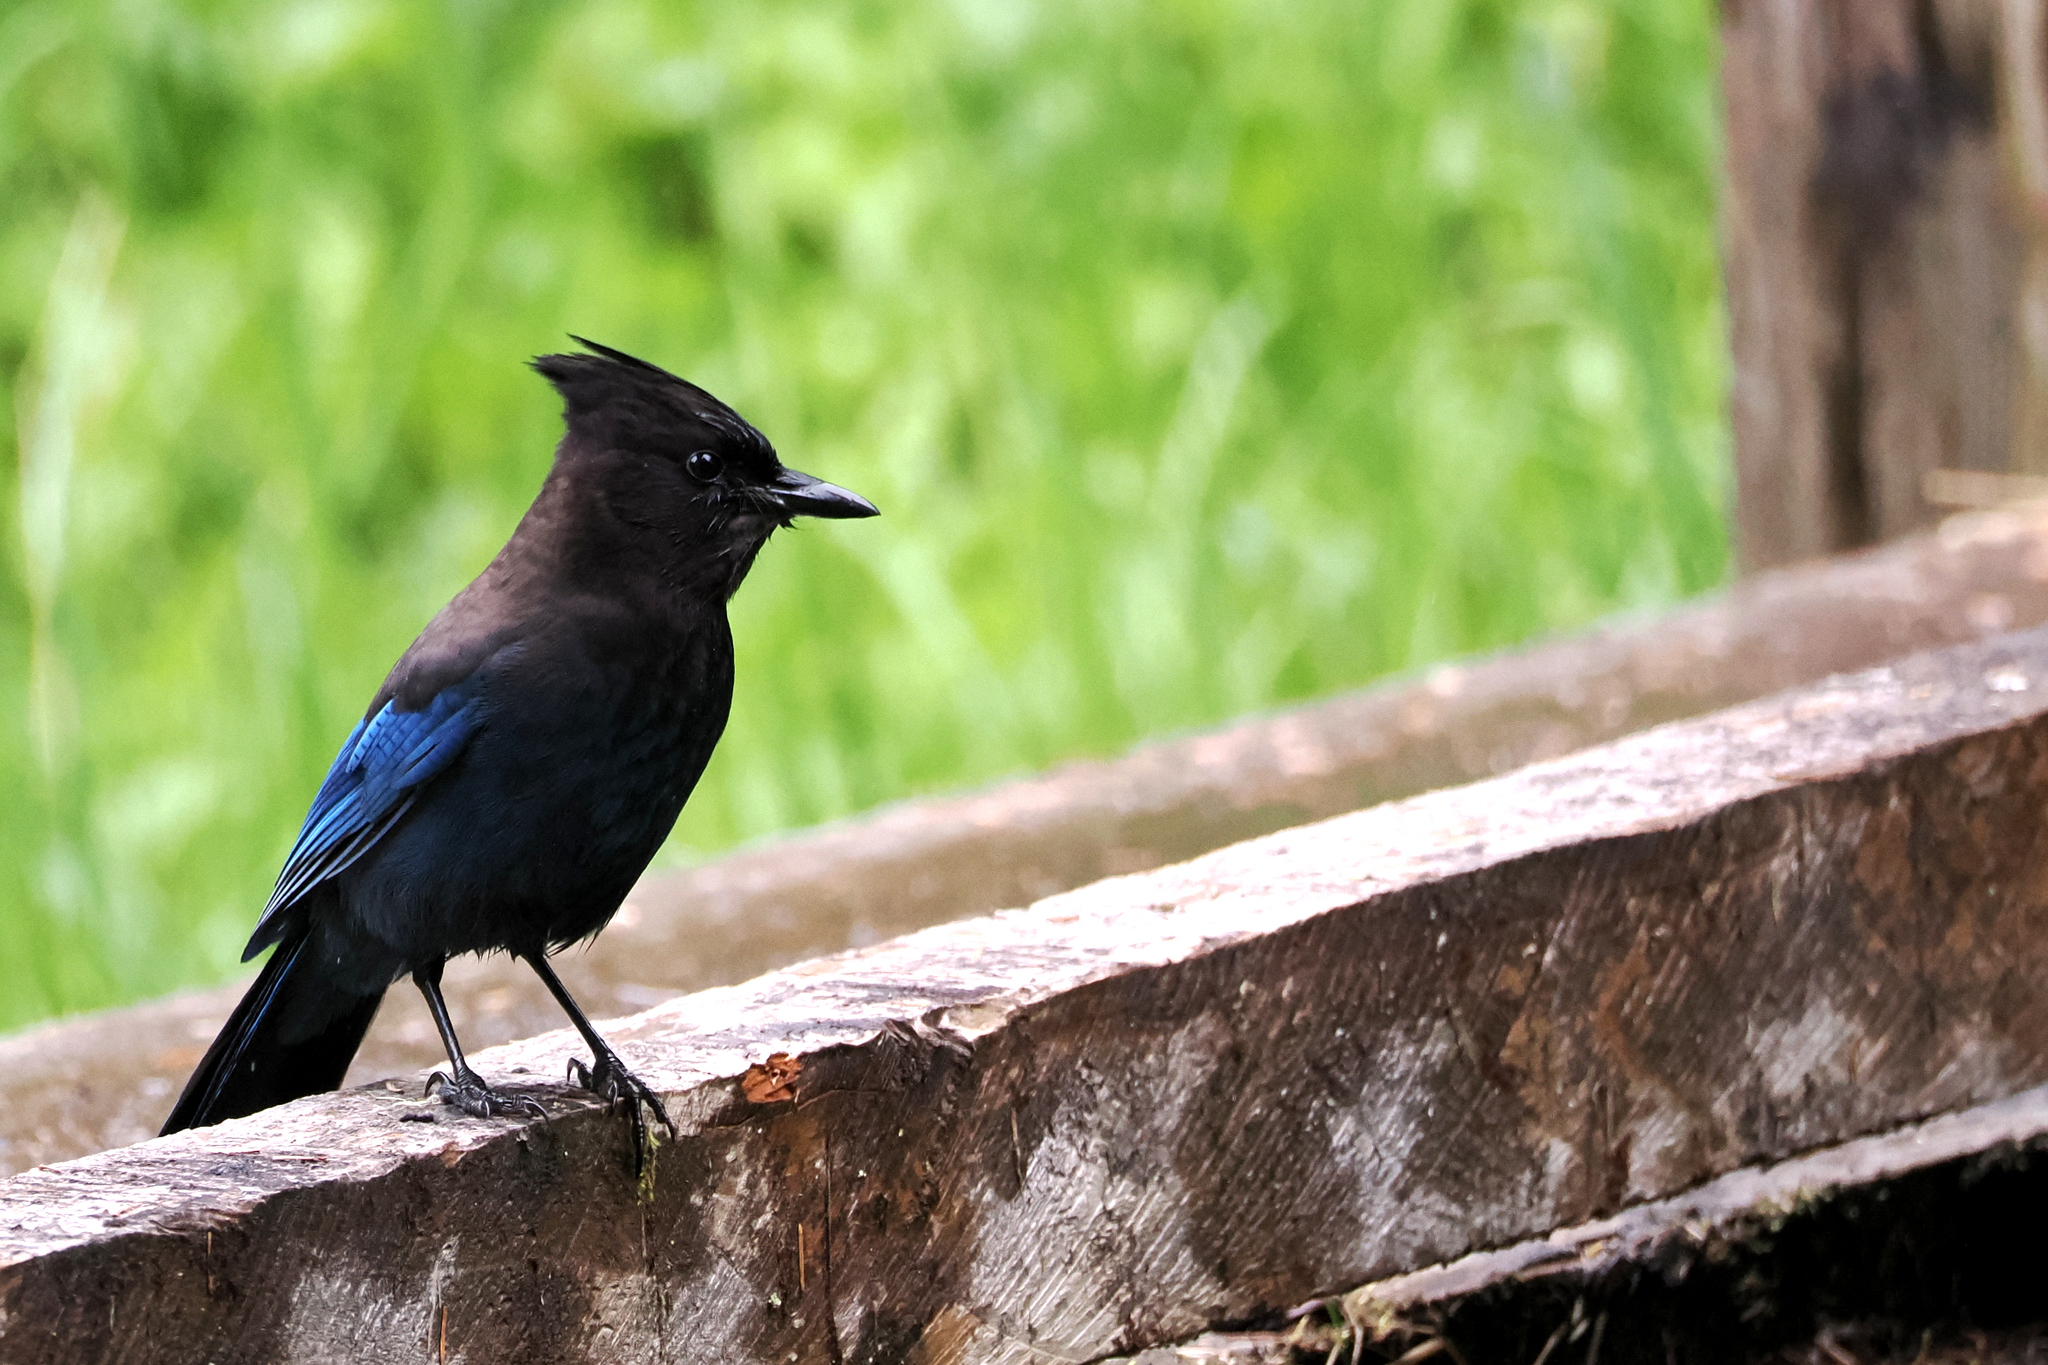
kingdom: Animalia
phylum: Chordata
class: Aves
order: Passeriformes
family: Corvidae
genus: Cyanocitta
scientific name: Cyanocitta stelleri
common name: Steller's jay
